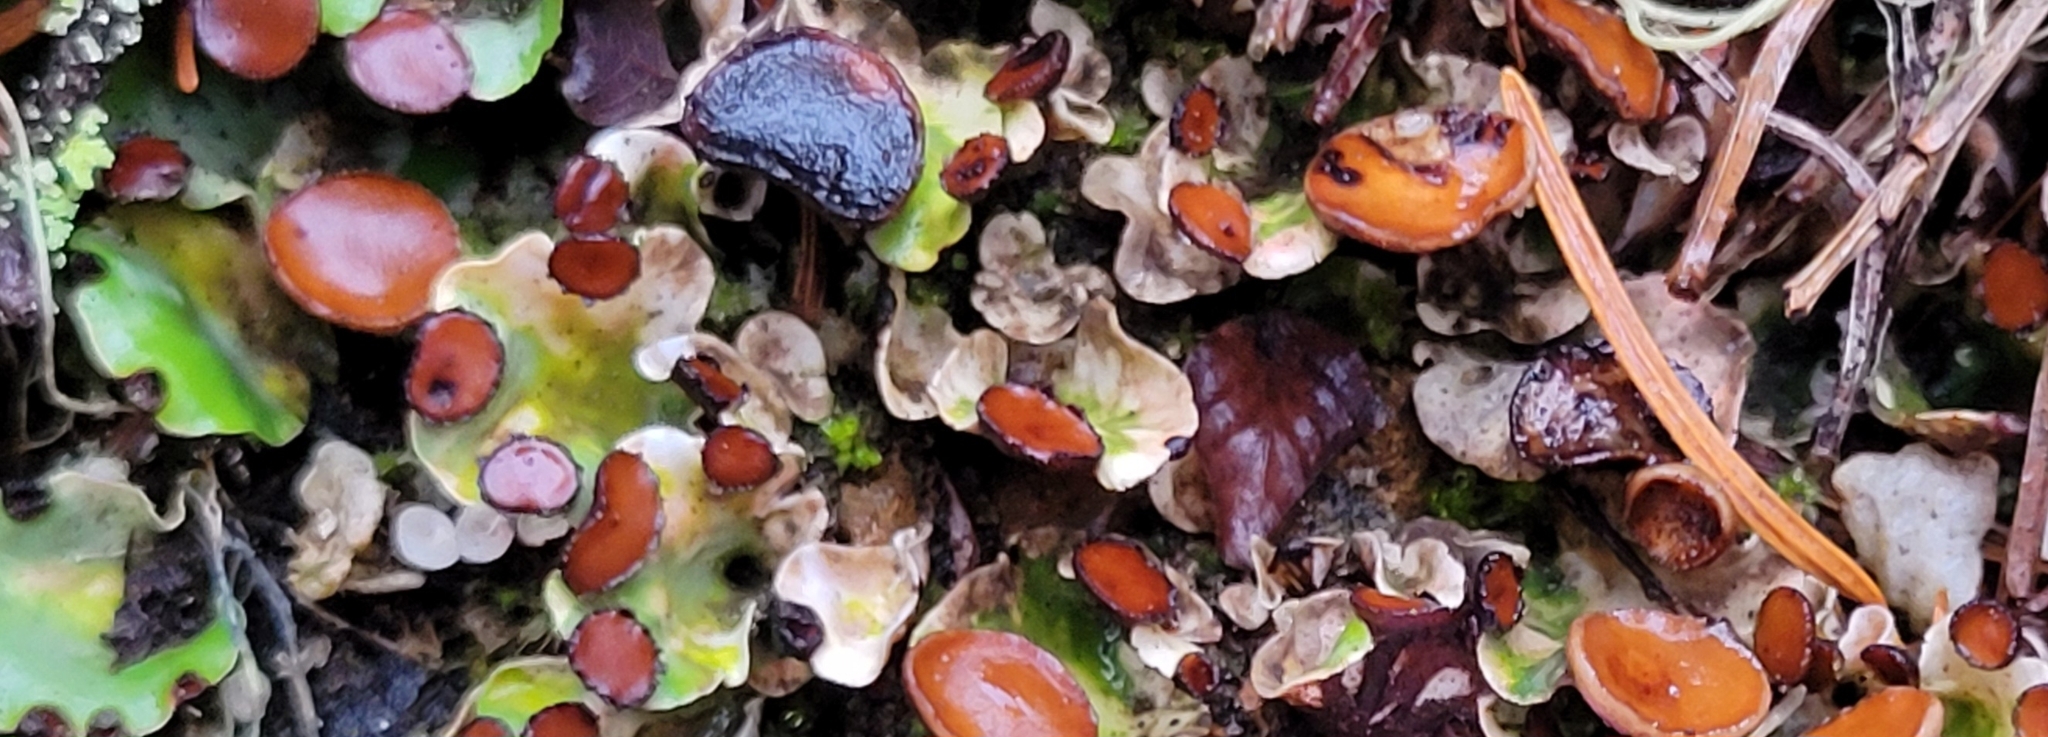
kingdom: Fungi
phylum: Ascomycota
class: Lecanoromycetes
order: Peltigerales
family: Peltigeraceae
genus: Peltigera
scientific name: Peltigera venosa
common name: Pixie gowns lichen
